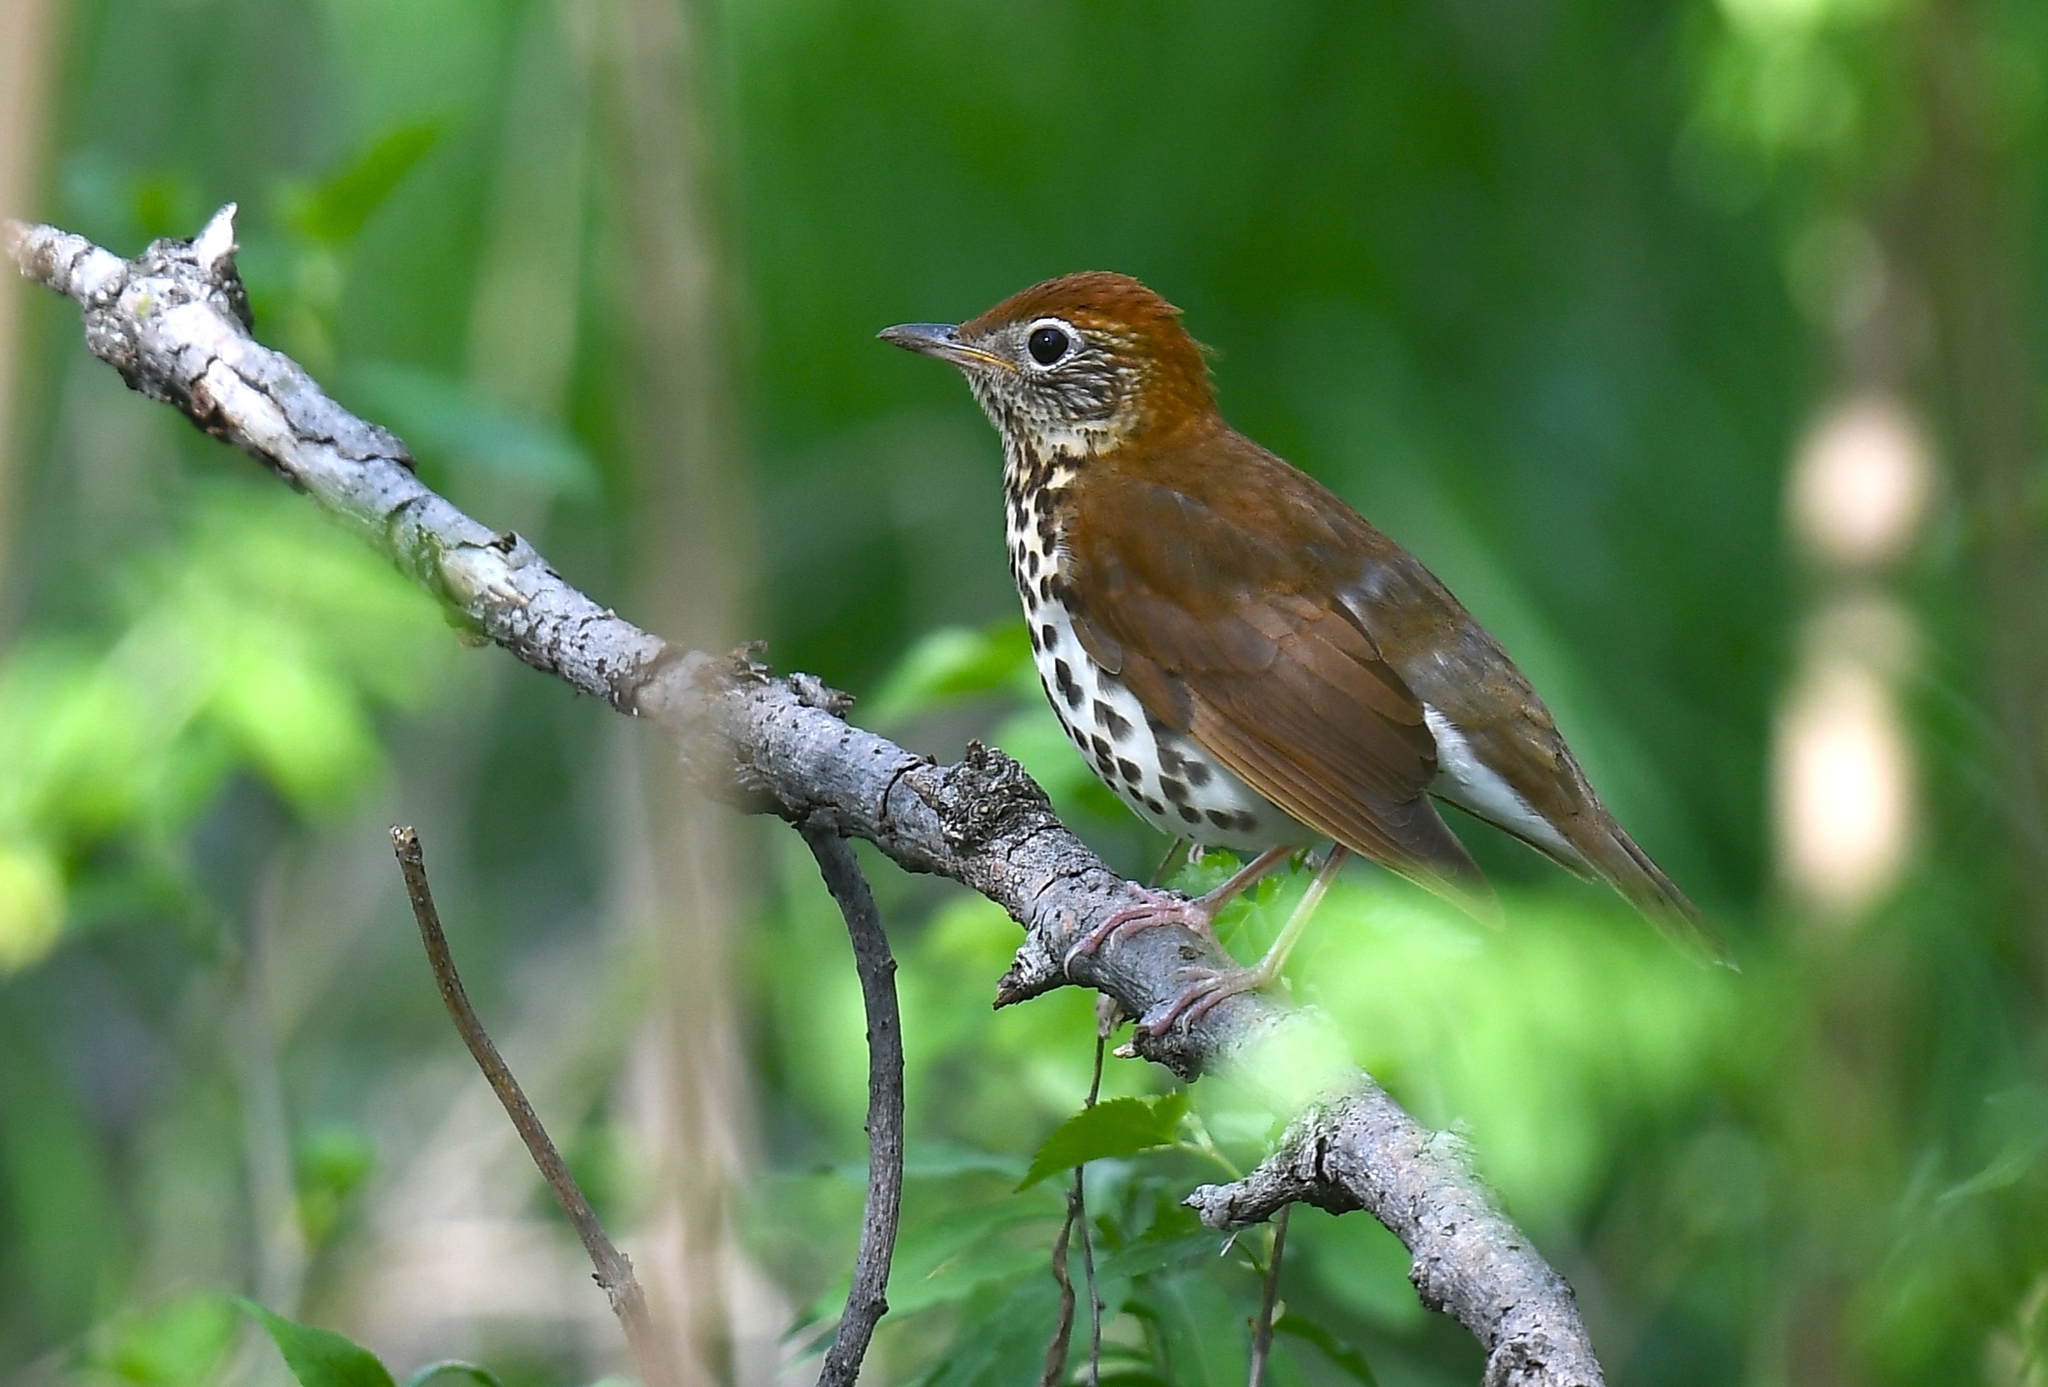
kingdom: Animalia
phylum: Chordata
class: Aves
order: Passeriformes
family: Turdidae
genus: Hylocichla
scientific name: Hylocichla mustelina
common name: Wood thrush
